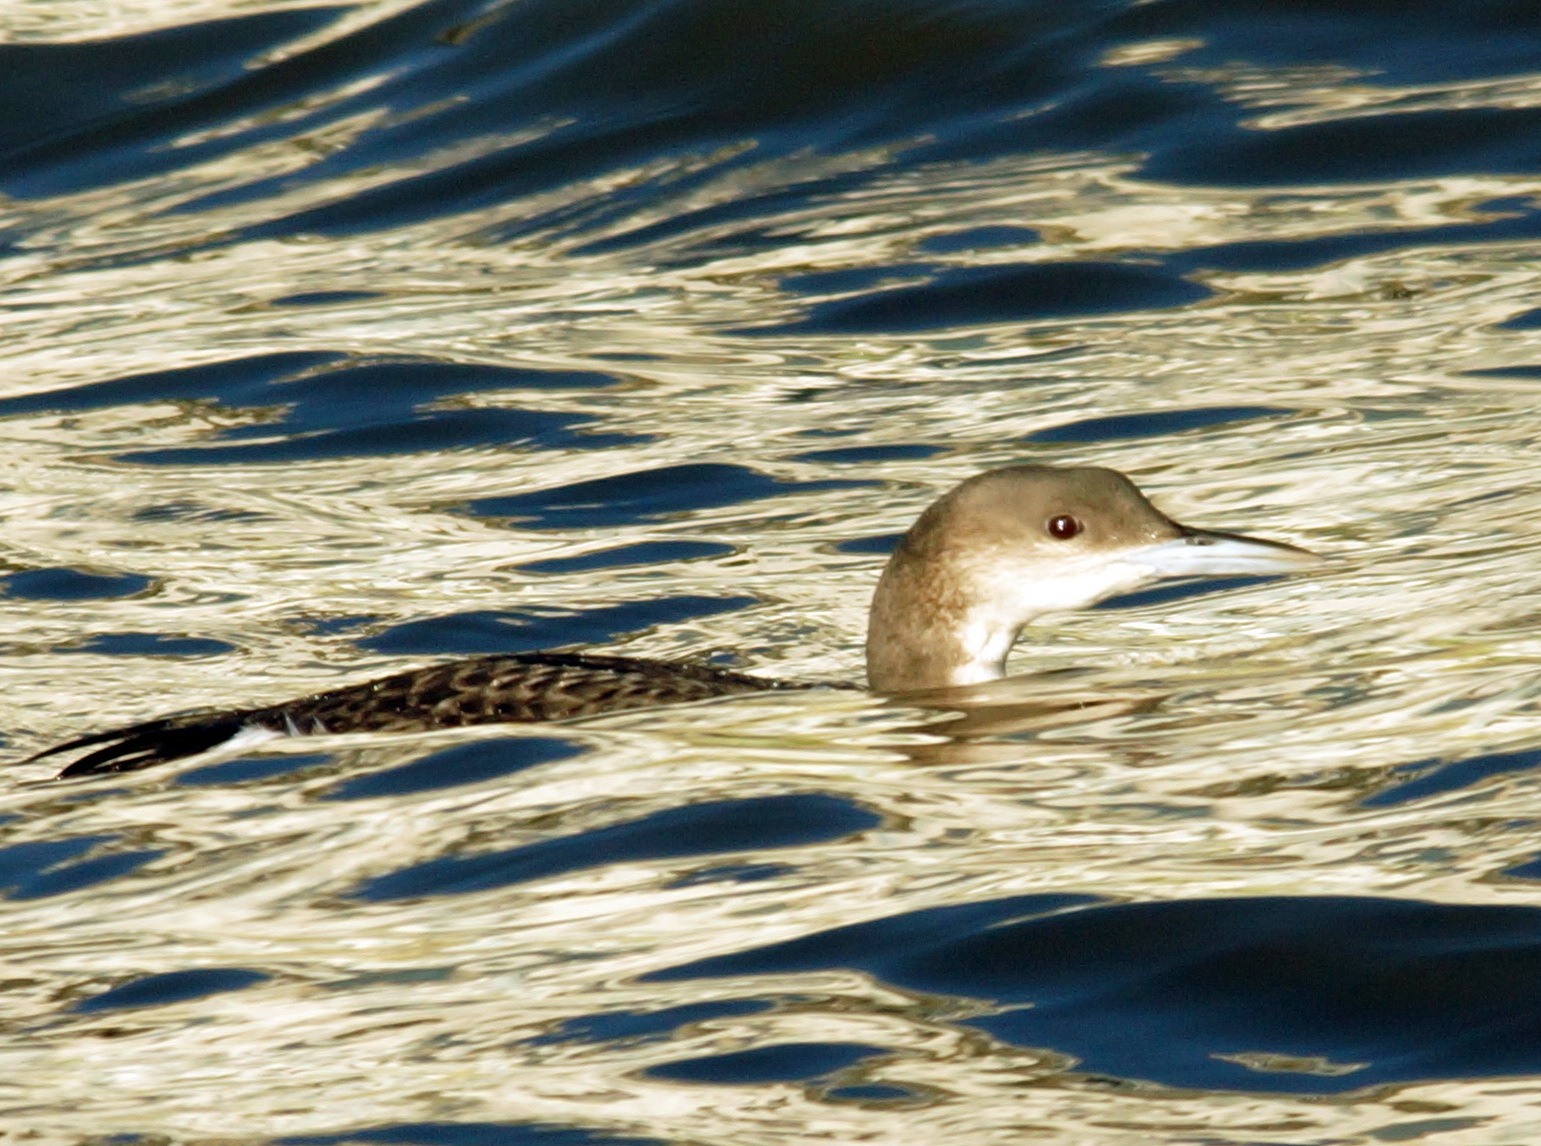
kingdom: Animalia
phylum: Chordata
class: Aves
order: Gaviiformes
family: Gaviidae
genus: Gavia
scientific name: Gavia arctica
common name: Black-throated loon
